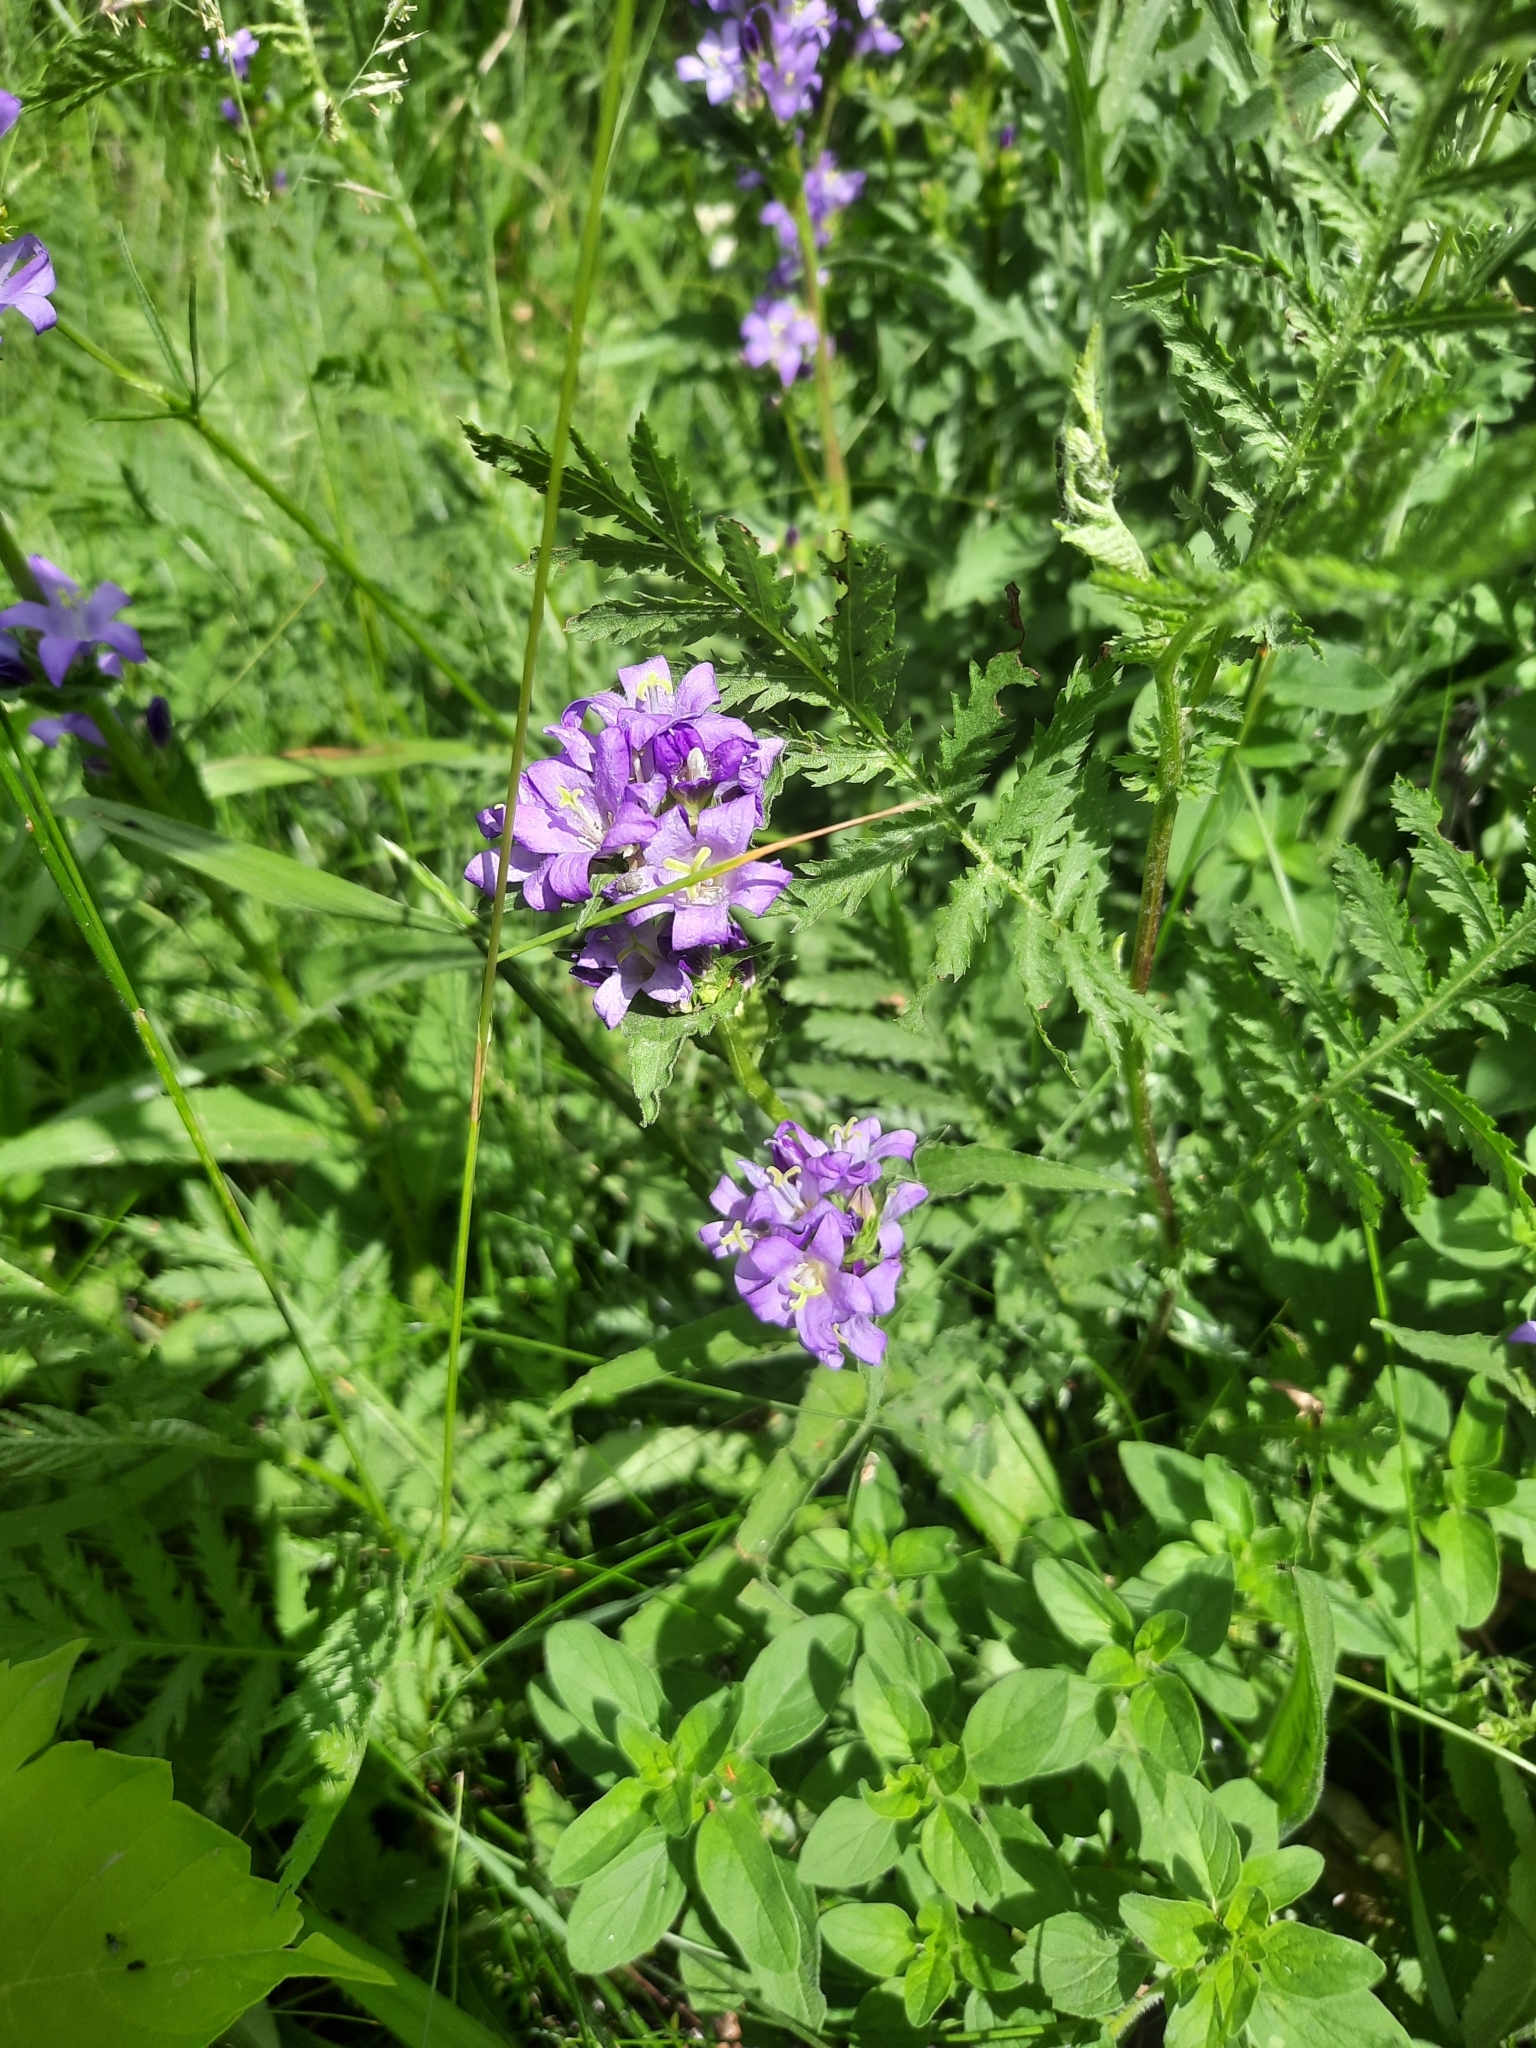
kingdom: Plantae
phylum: Tracheophyta
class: Magnoliopsida
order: Asterales
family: Campanulaceae
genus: Campanula
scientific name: Campanula glomerata
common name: Clustered bellflower
